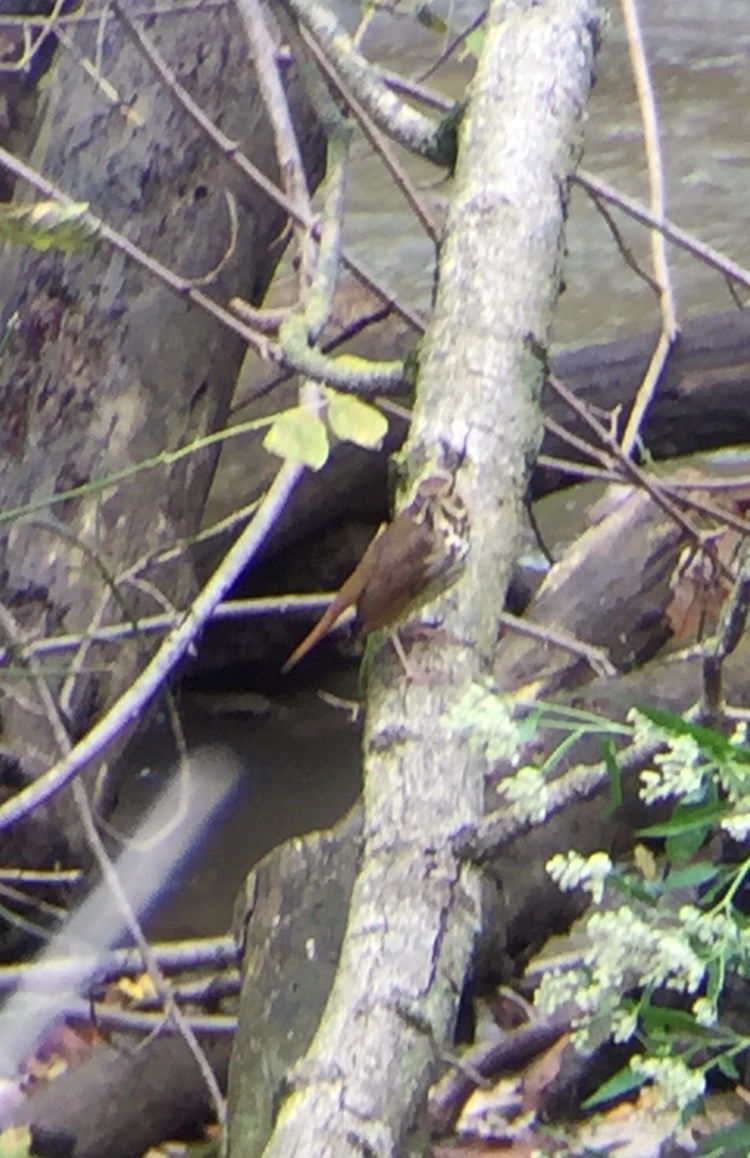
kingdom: Animalia
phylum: Chordata
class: Aves
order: Passeriformes
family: Turdidae
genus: Catharus
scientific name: Catharus guttatus
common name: Hermit thrush
